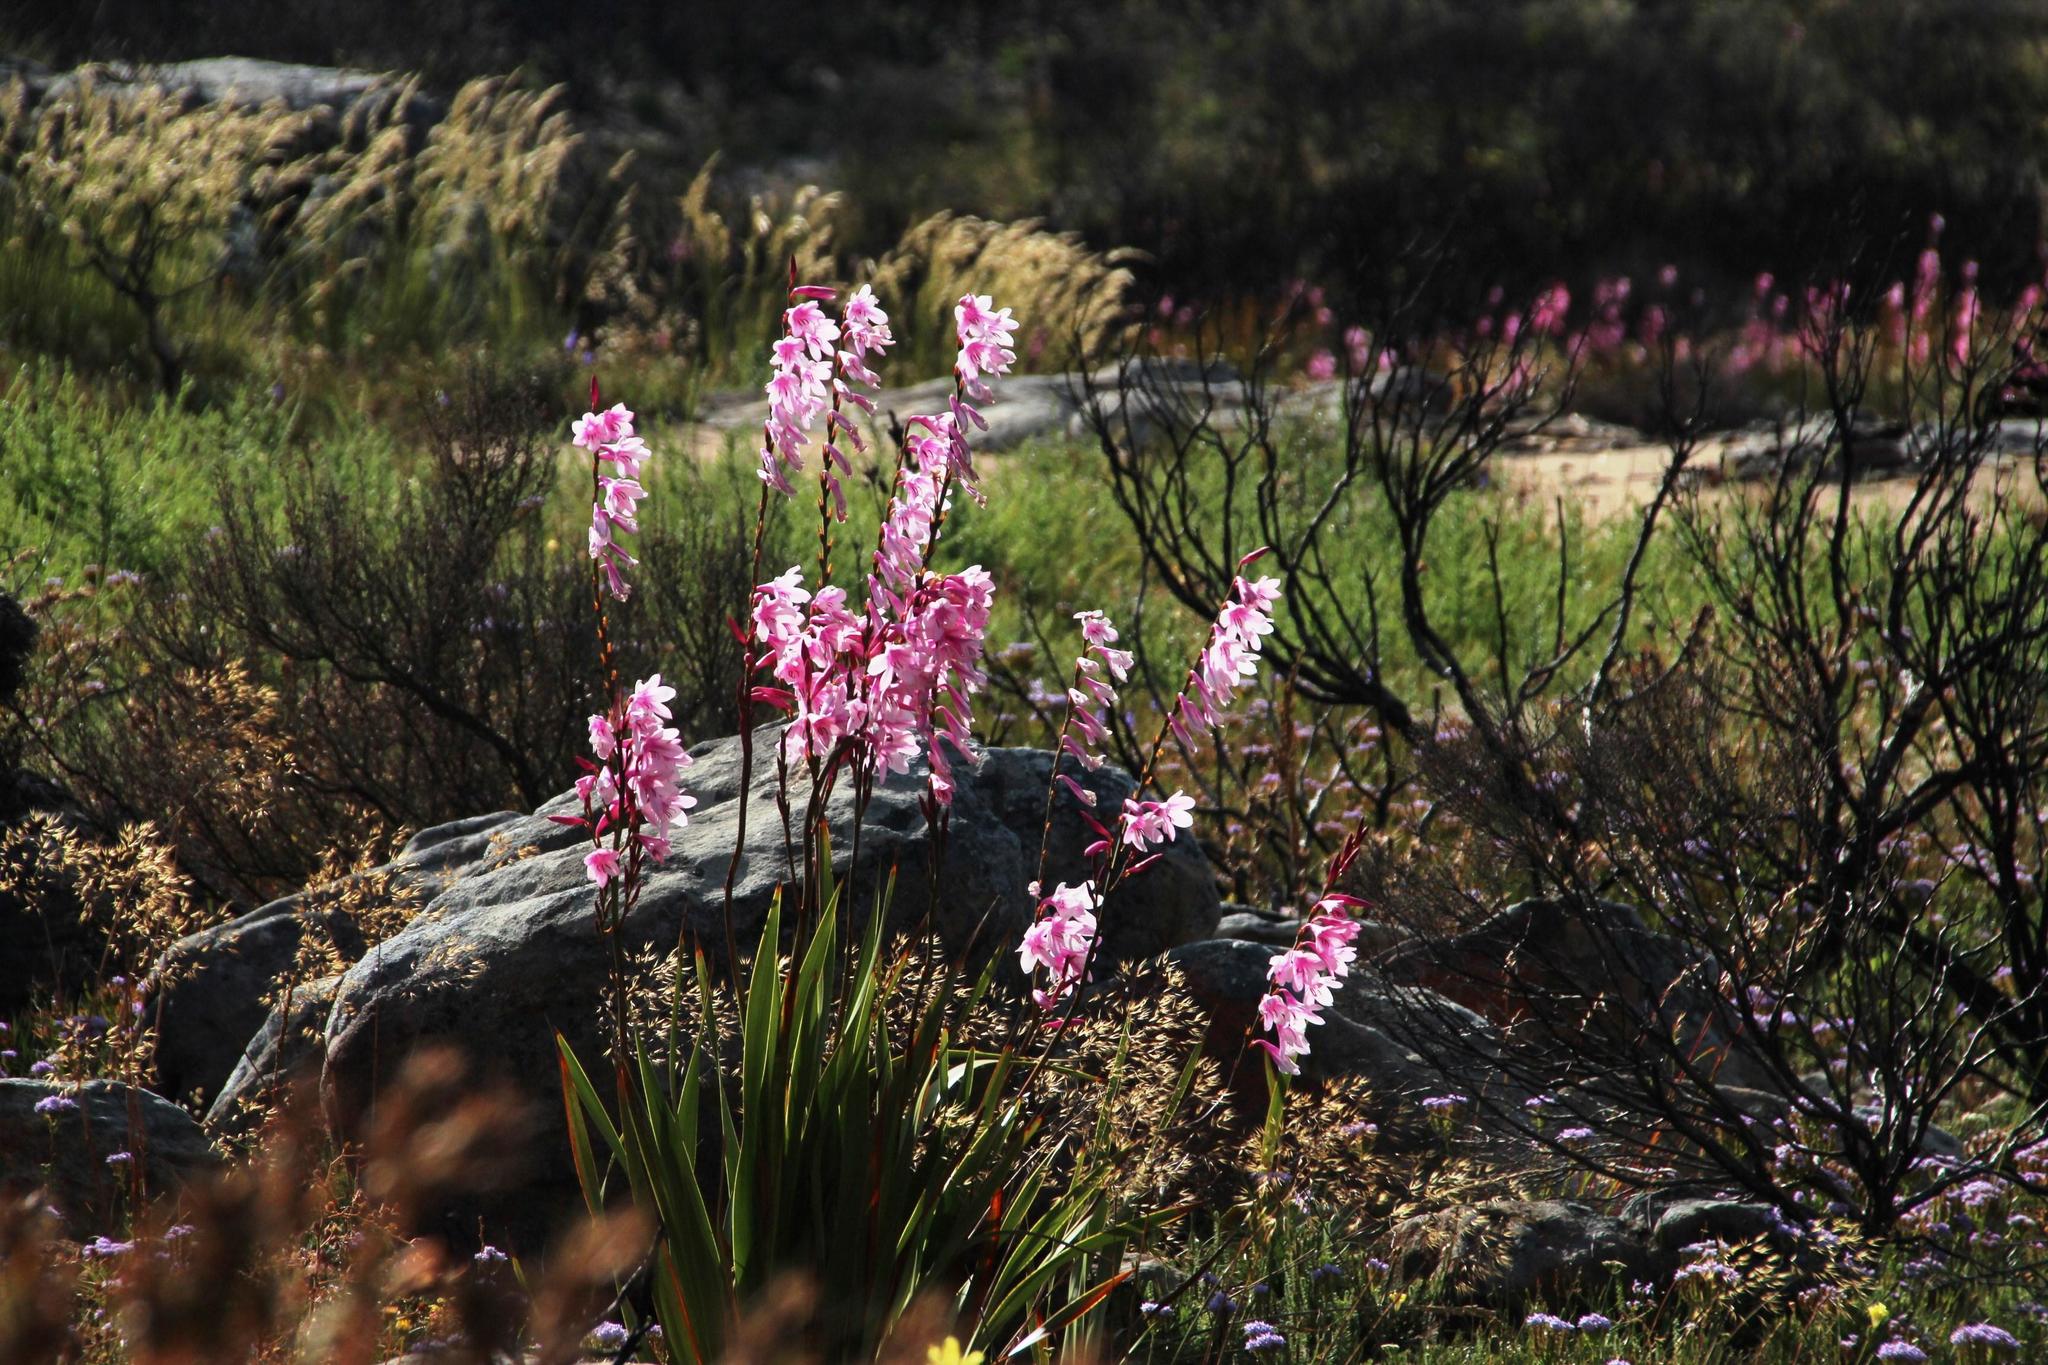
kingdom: Plantae
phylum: Tracheophyta
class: Liliopsida
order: Asparagales
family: Iridaceae
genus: Watsonia
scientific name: Watsonia borbonica
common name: Bugle-lily
